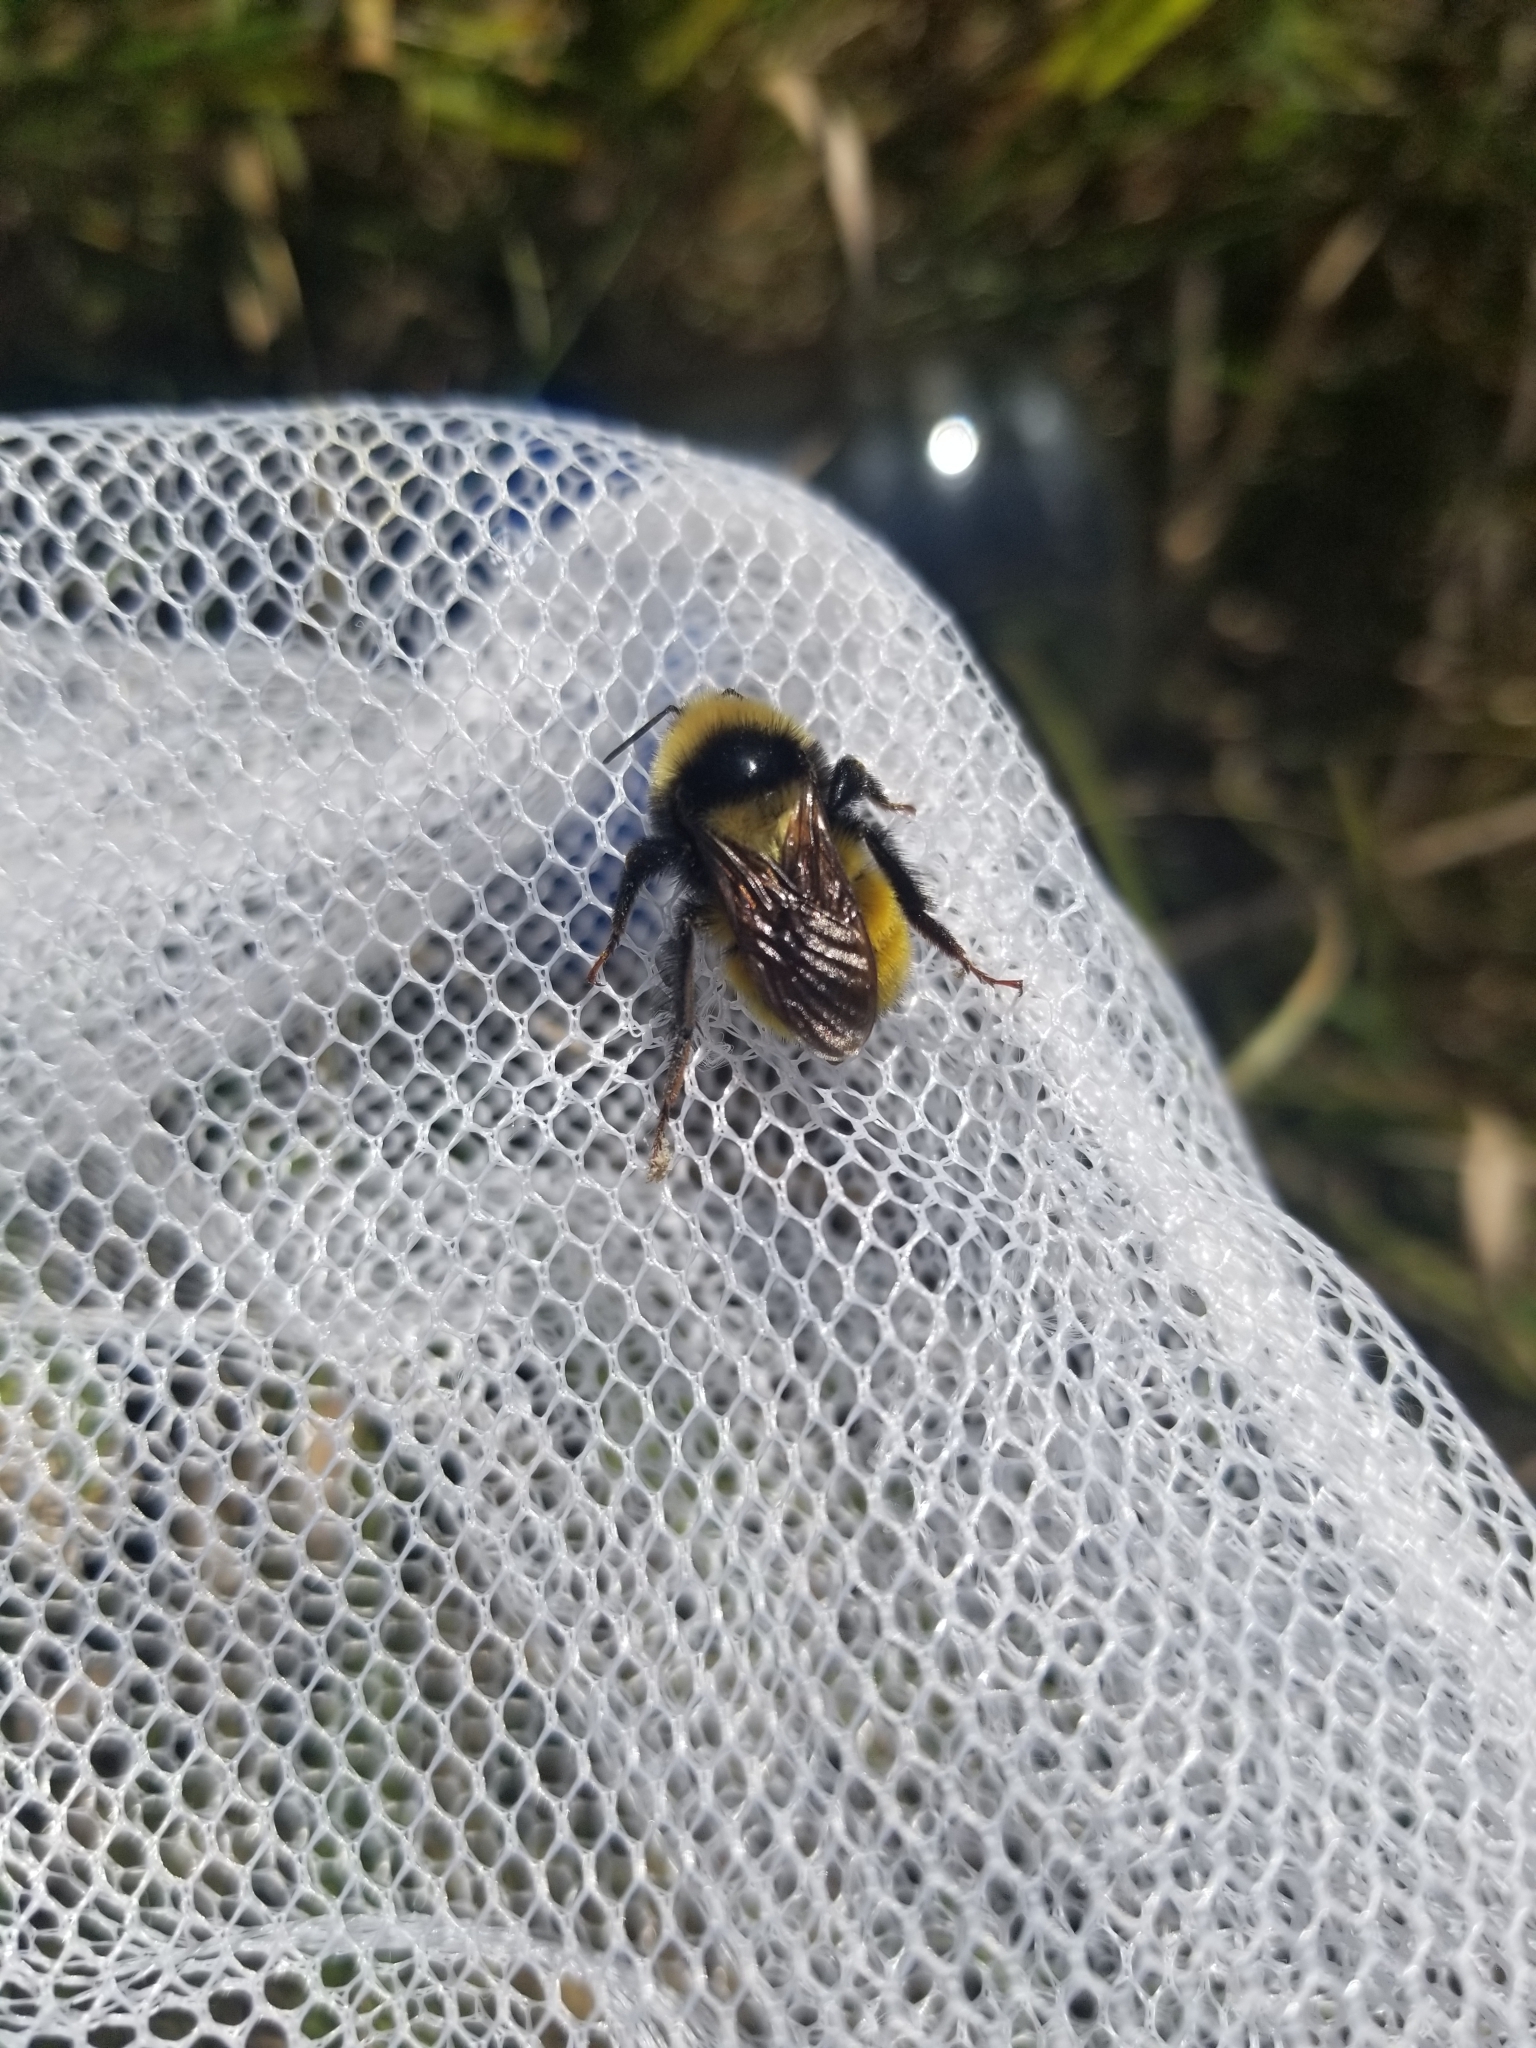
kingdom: Animalia
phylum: Arthropoda
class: Insecta
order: Hymenoptera
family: Apidae
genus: Bombus
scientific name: Bombus borealis
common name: Northern amber bumble bee
